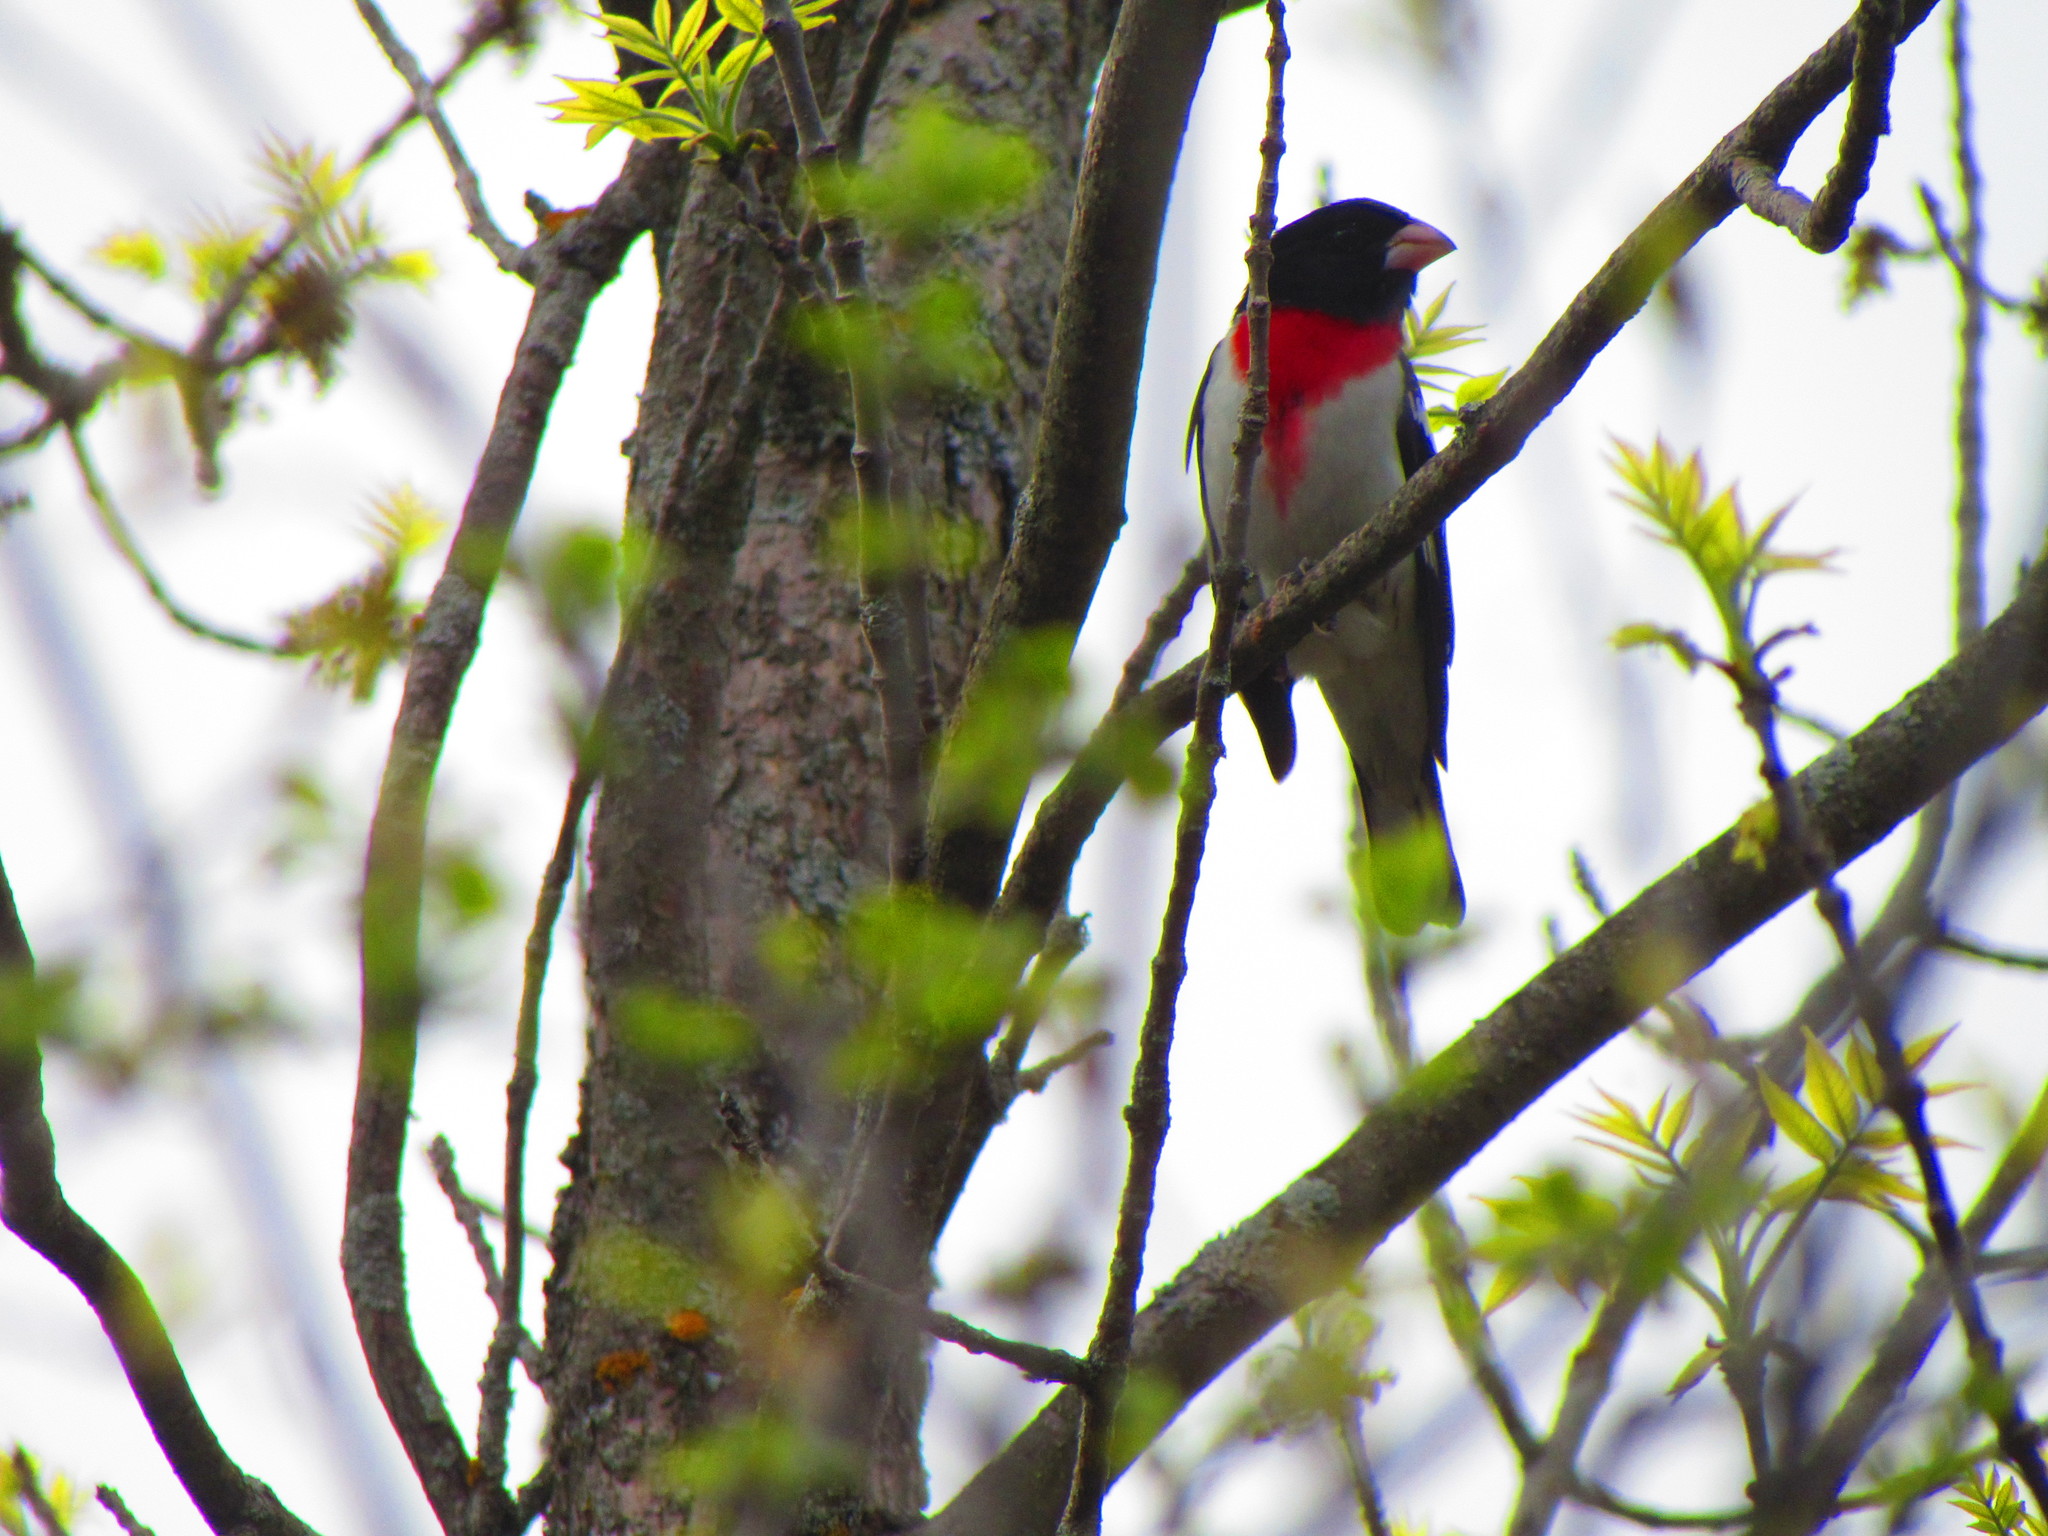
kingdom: Animalia
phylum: Chordata
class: Aves
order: Passeriformes
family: Cardinalidae
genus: Pheucticus
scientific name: Pheucticus ludovicianus
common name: Rose-breasted grosbeak
